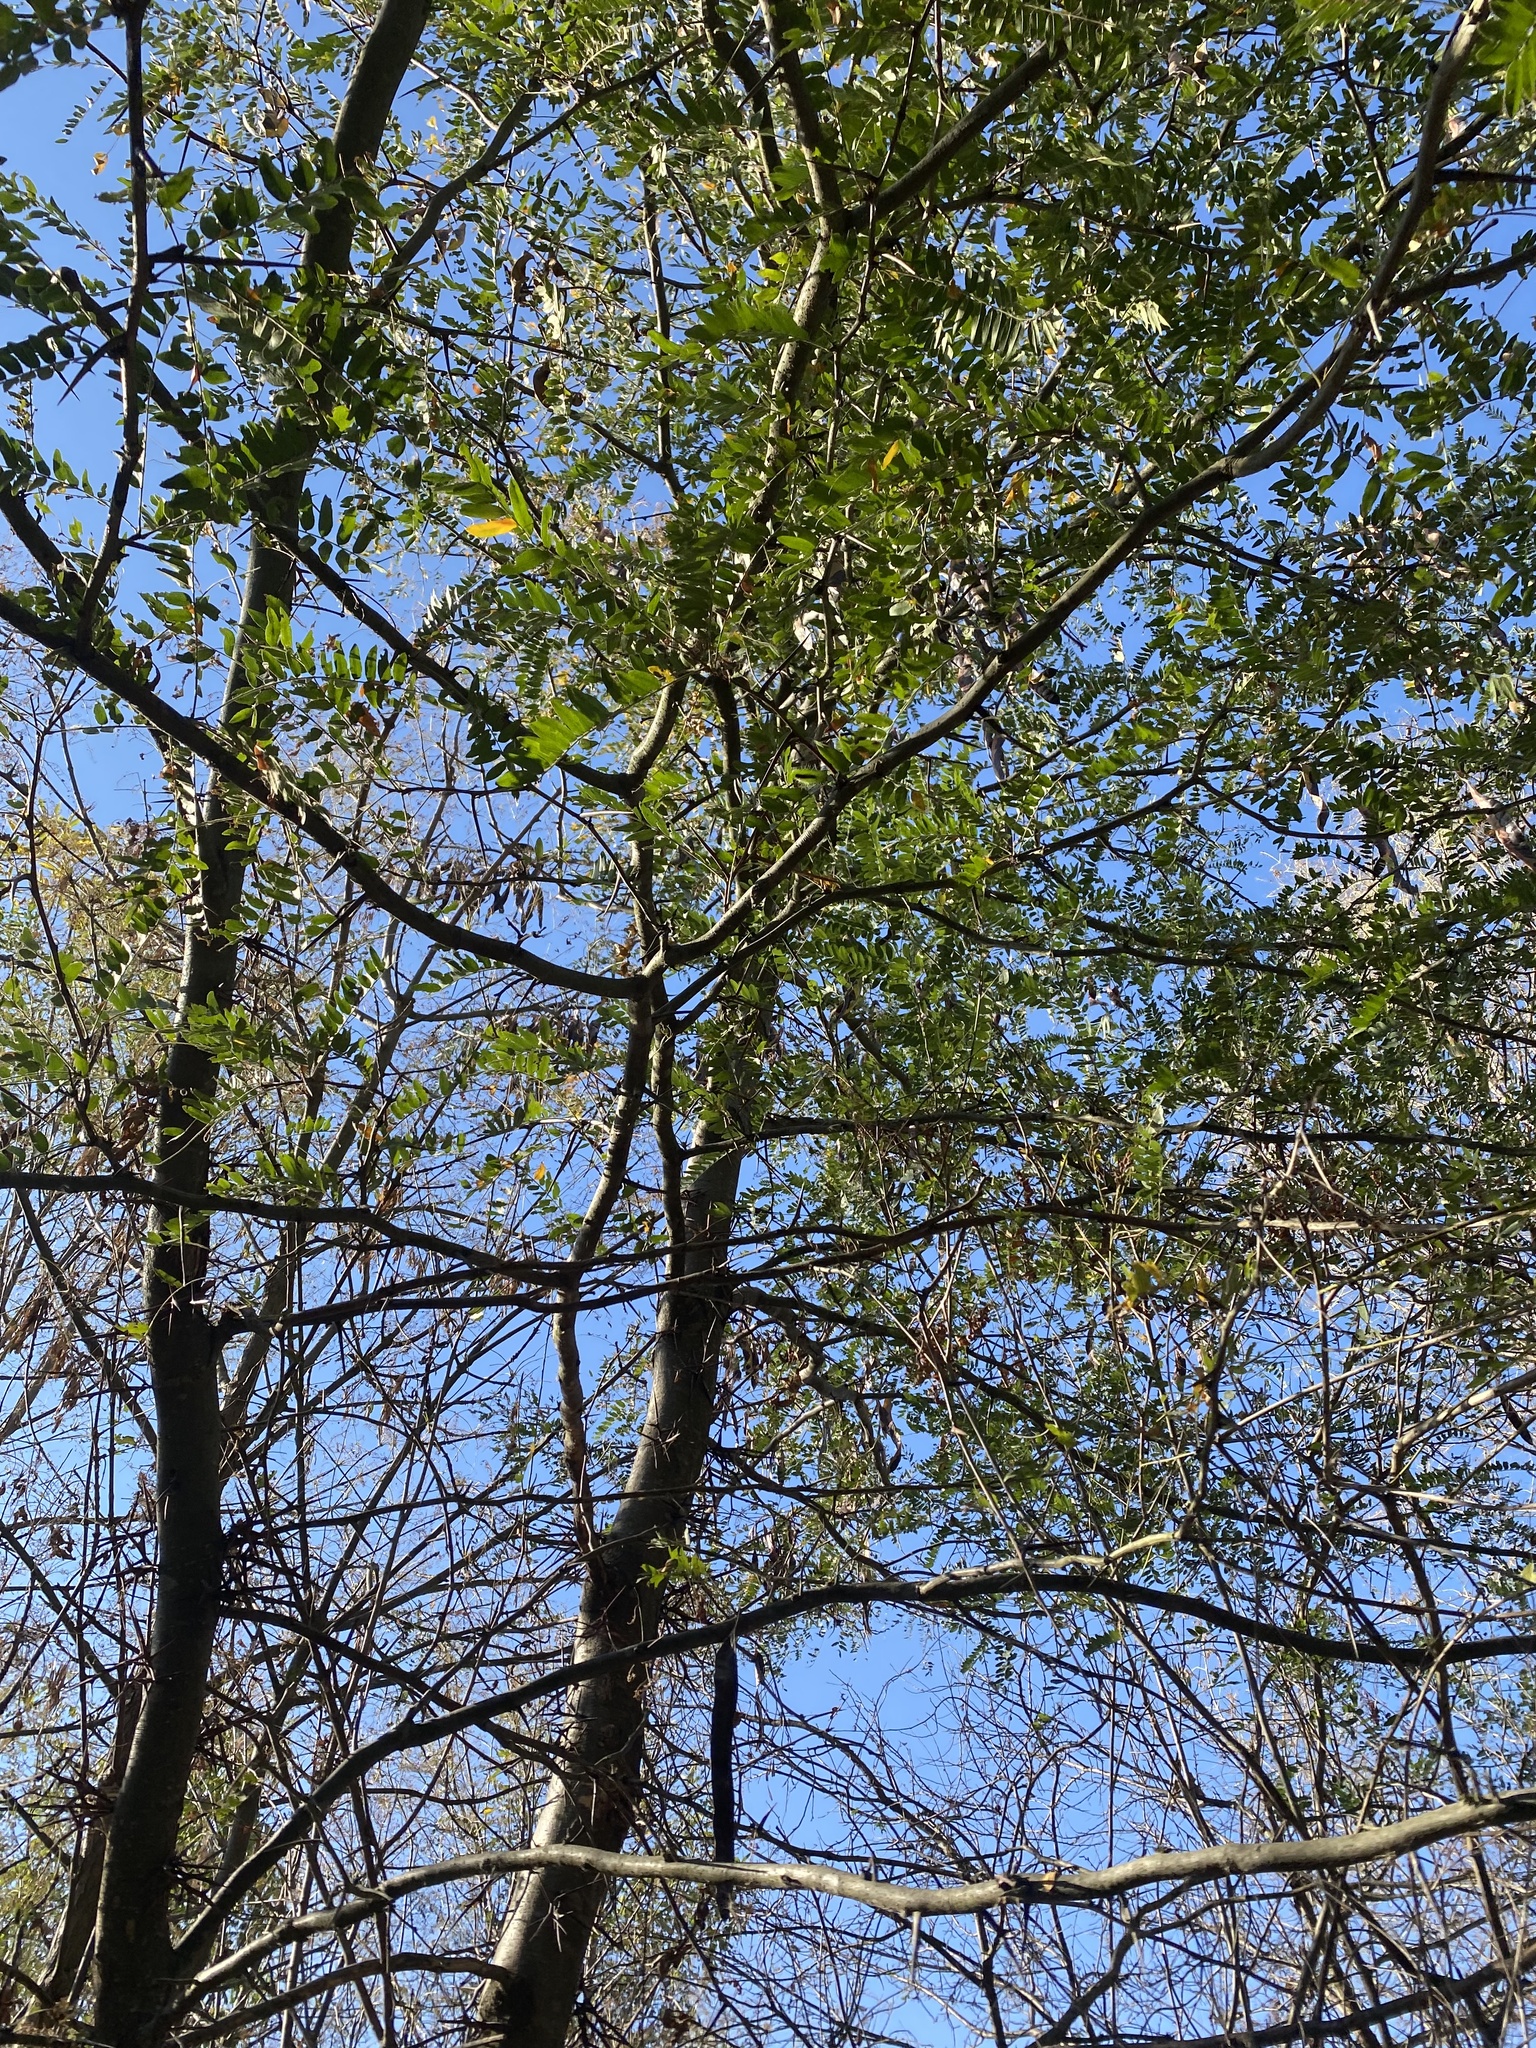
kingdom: Plantae
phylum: Tracheophyta
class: Magnoliopsida
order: Fabales
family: Fabaceae
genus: Gleditsia
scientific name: Gleditsia triacanthos
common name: Common honeylocust
